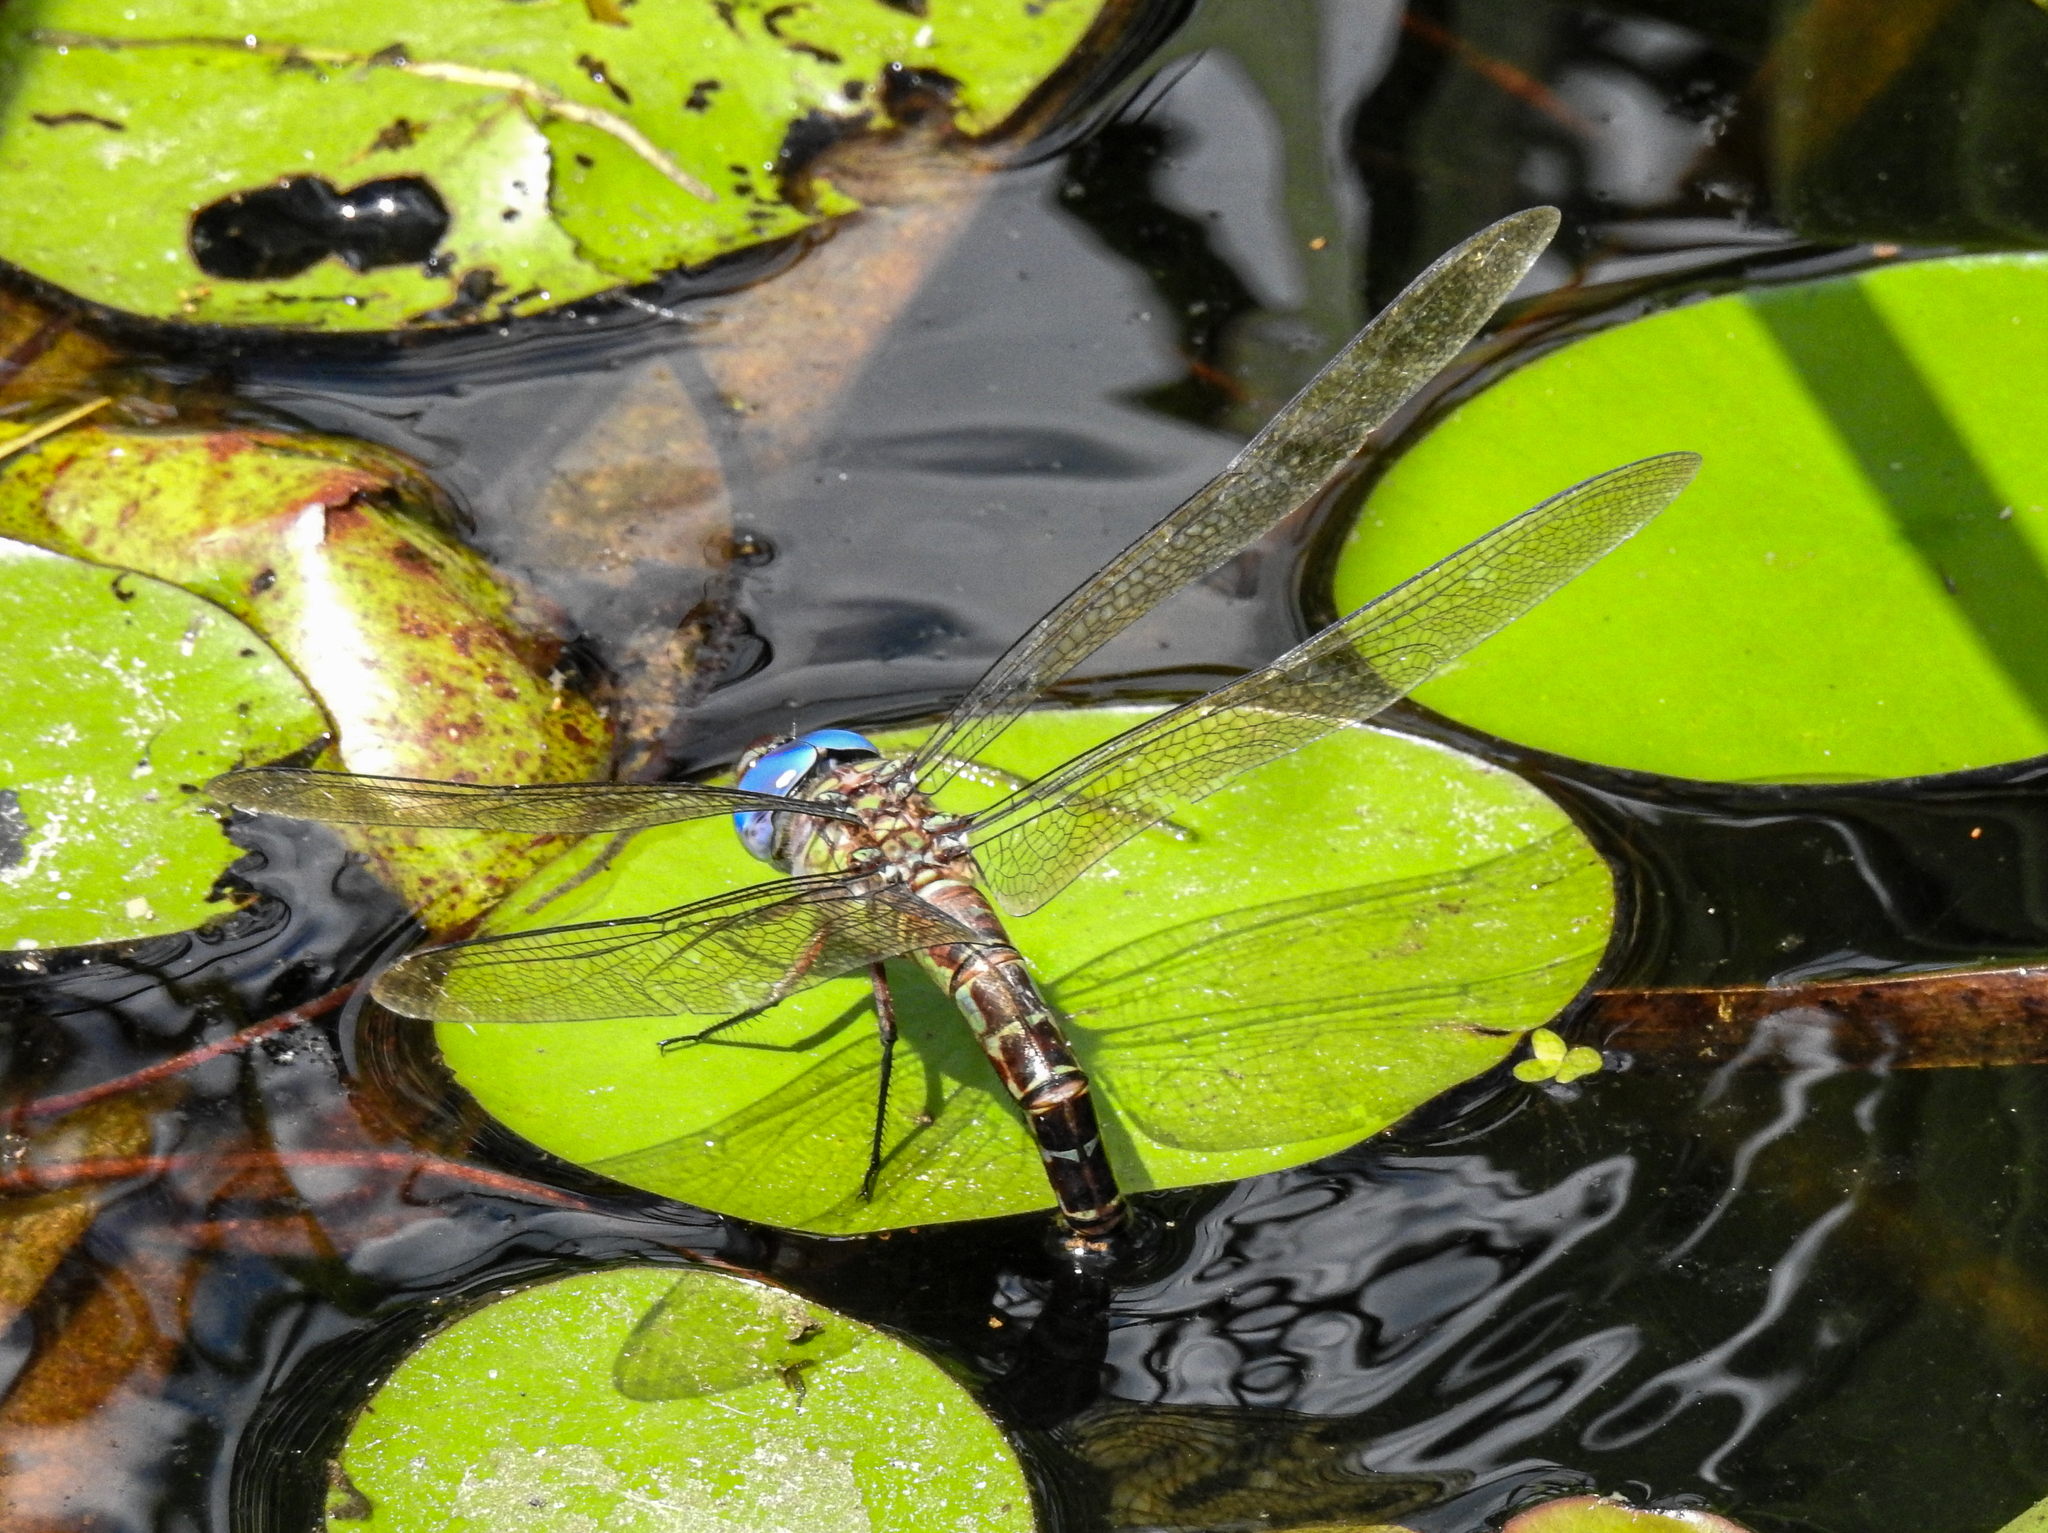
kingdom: Animalia
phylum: Arthropoda
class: Insecta
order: Odonata
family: Aeshnidae
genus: Coryphaeschna
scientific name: Coryphaeschna ingens
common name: Regal darner
